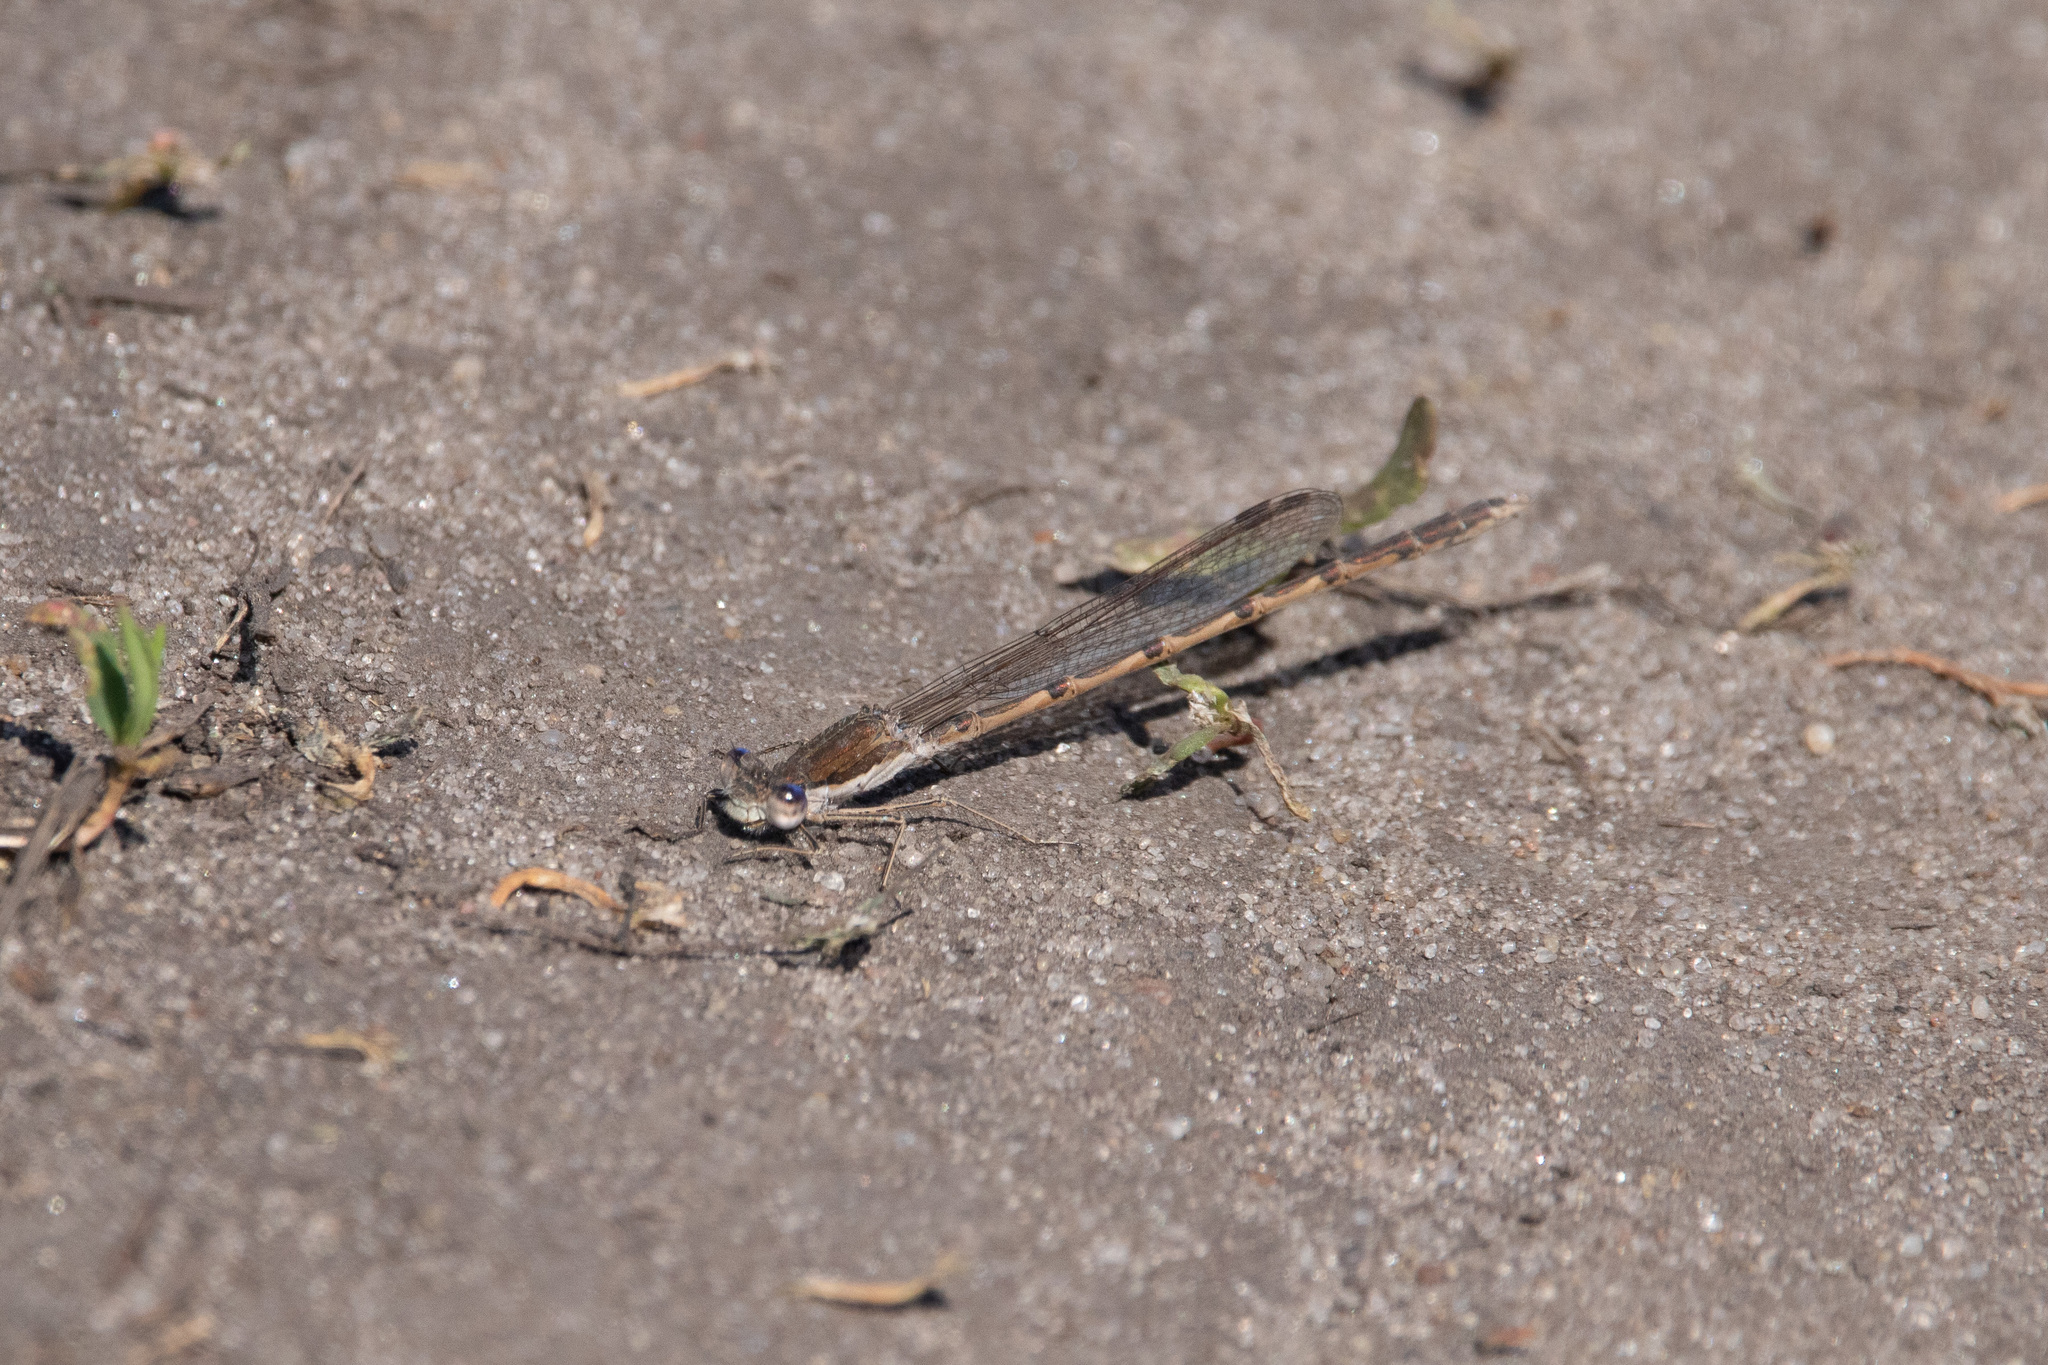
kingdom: Animalia
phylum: Arthropoda
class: Insecta
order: Odonata
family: Lestidae
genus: Sympecma
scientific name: Sympecma fusca
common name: Common winter damsel
